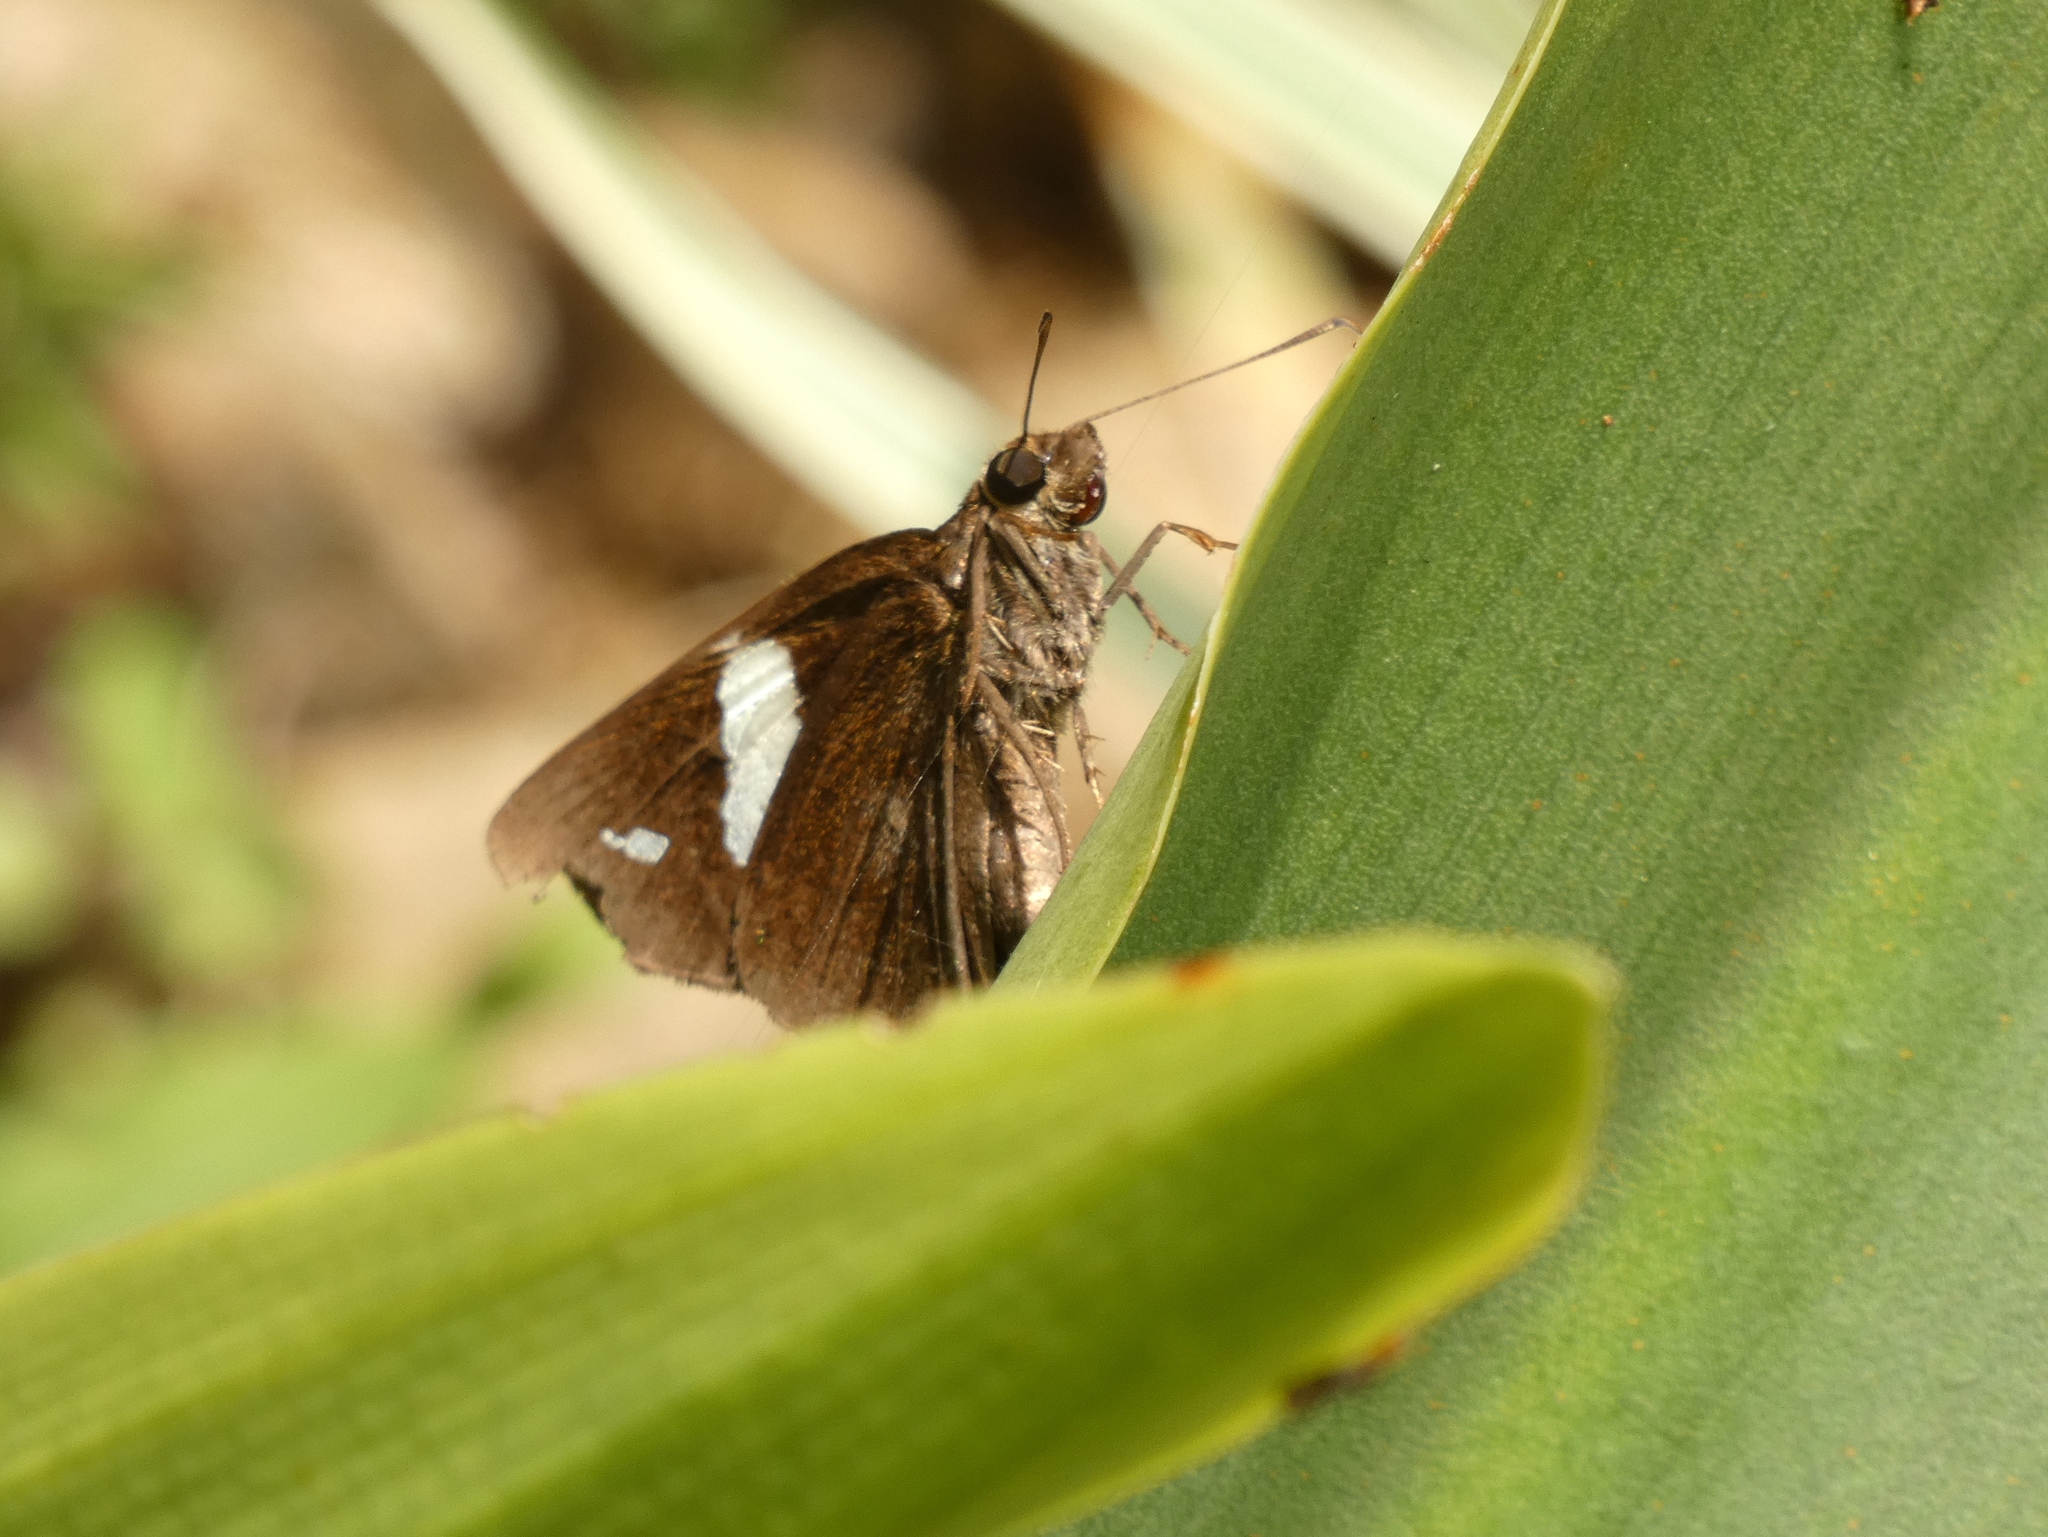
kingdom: Animalia
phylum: Arthropoda
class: Insecta
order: Lepidoptera
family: Hesperiidae
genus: Notocrypta
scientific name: Notocrypta paralysos
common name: Common banded demon
